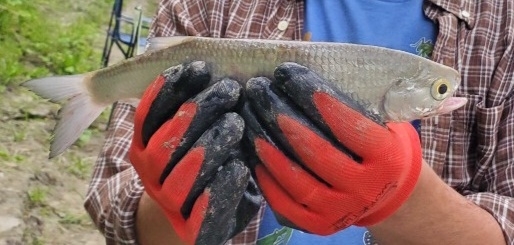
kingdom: Animalia
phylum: Chordata
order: Osteoglossiformes
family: Hiodontidae
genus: Hiodon
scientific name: Hiodon alosoides
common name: Goldeye
